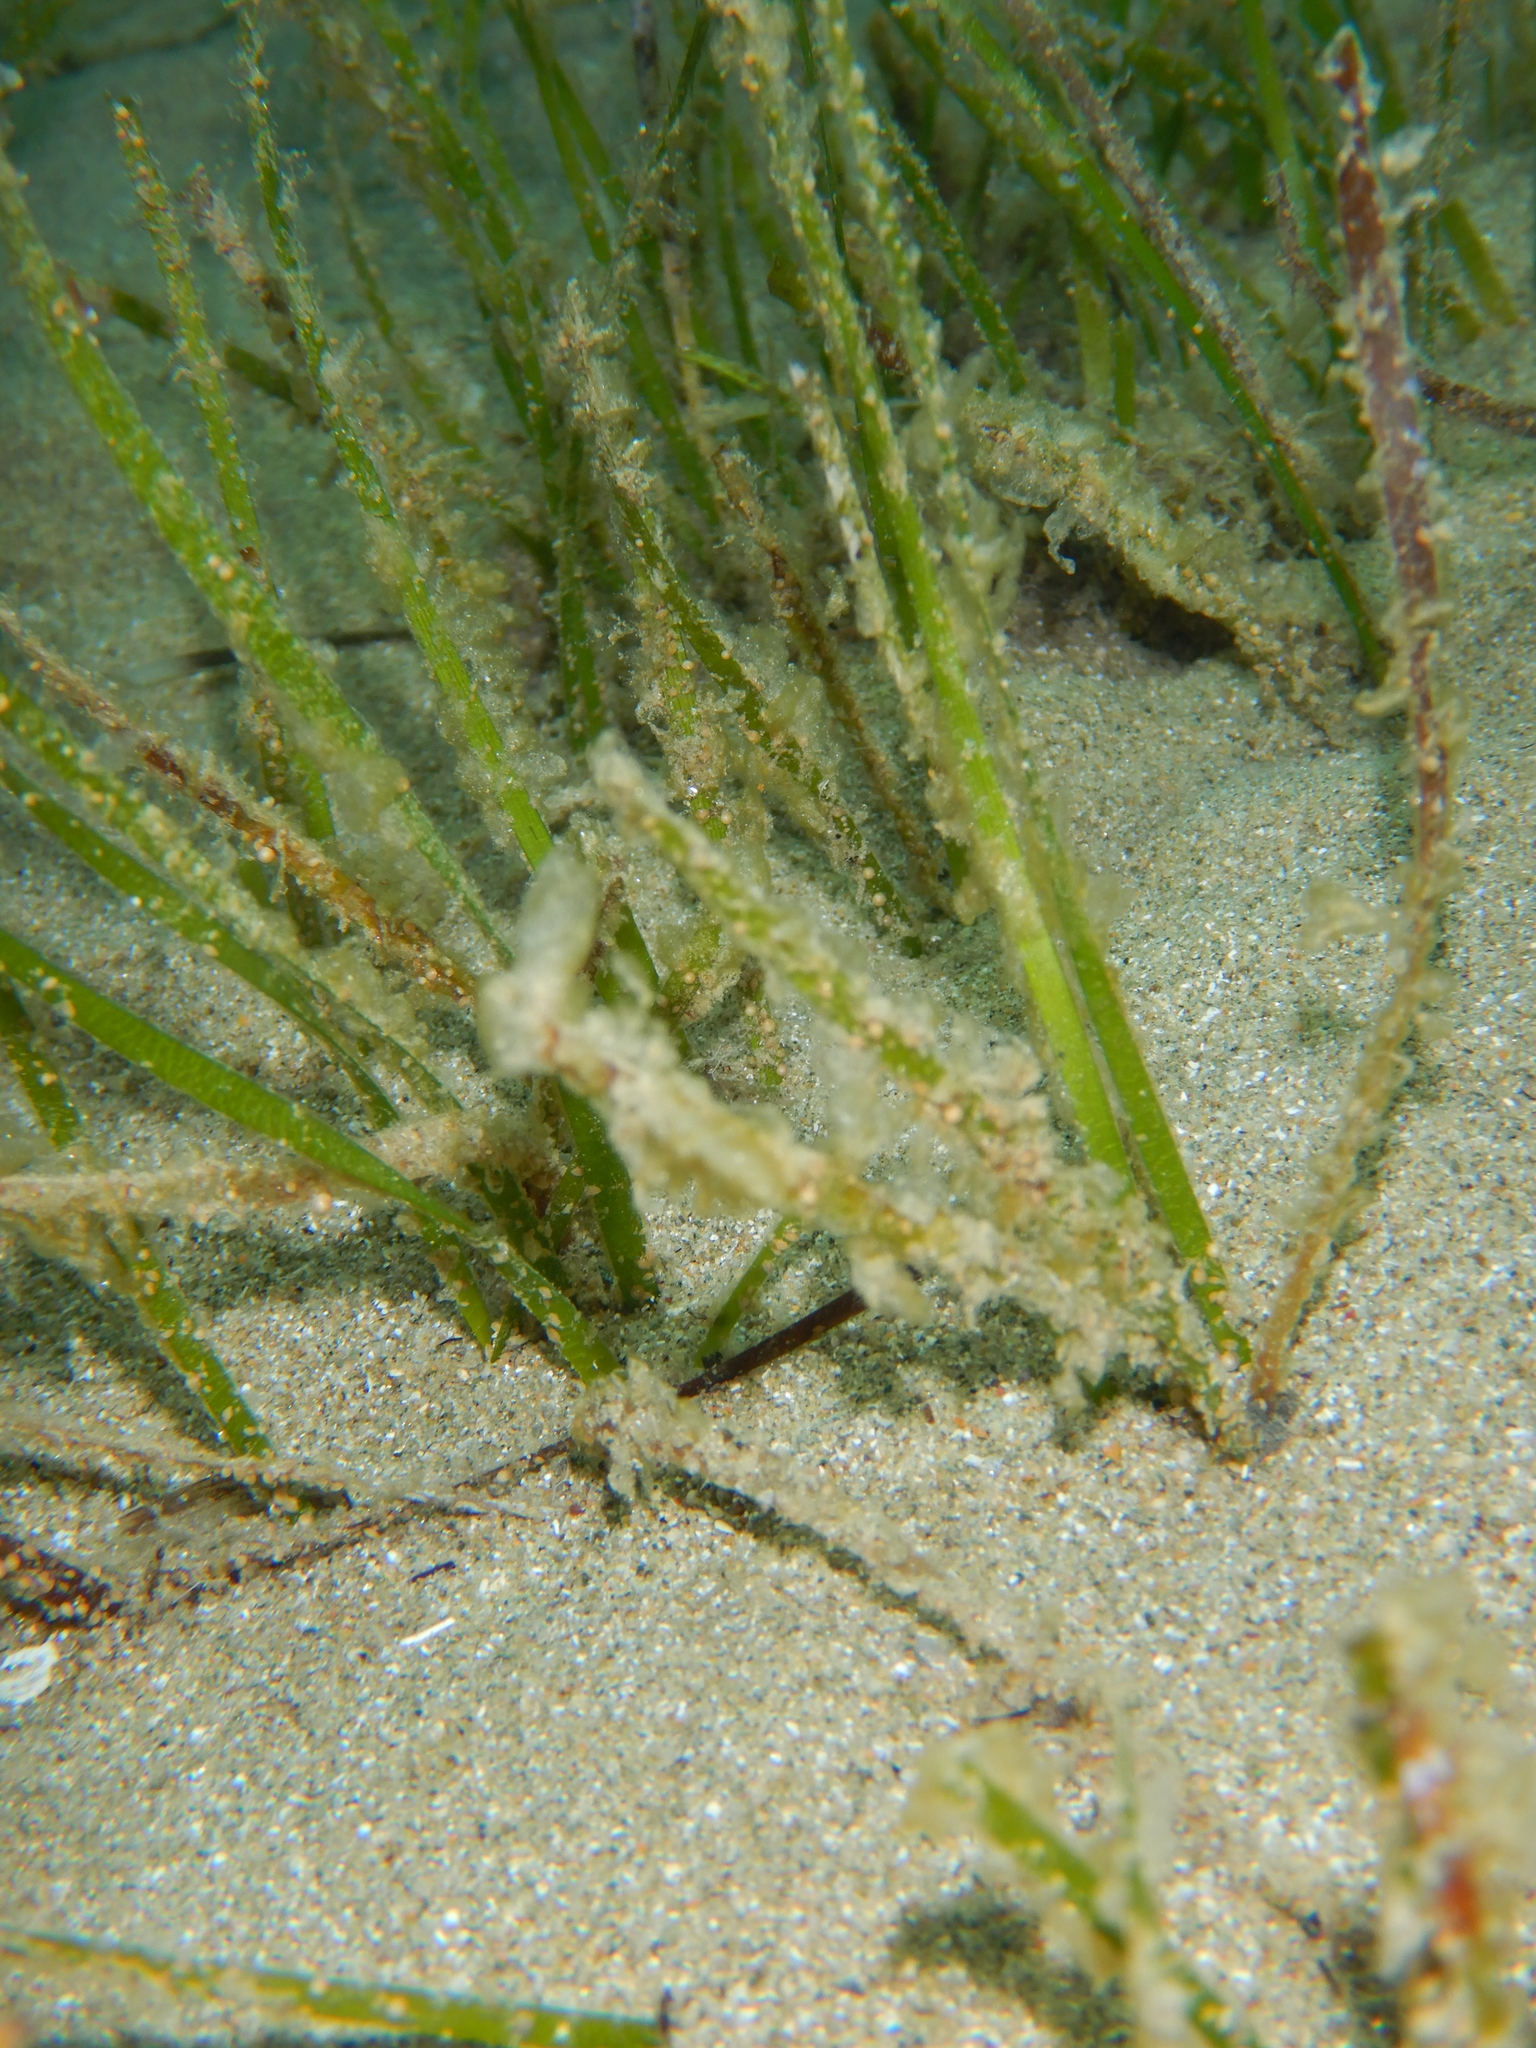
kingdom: Plantae
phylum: Tracheophyta
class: Liliopsida
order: Alismatales
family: Cymodoceaceae
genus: Cymodocea
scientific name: Cymodocea nodosa
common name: Slender seagrass
